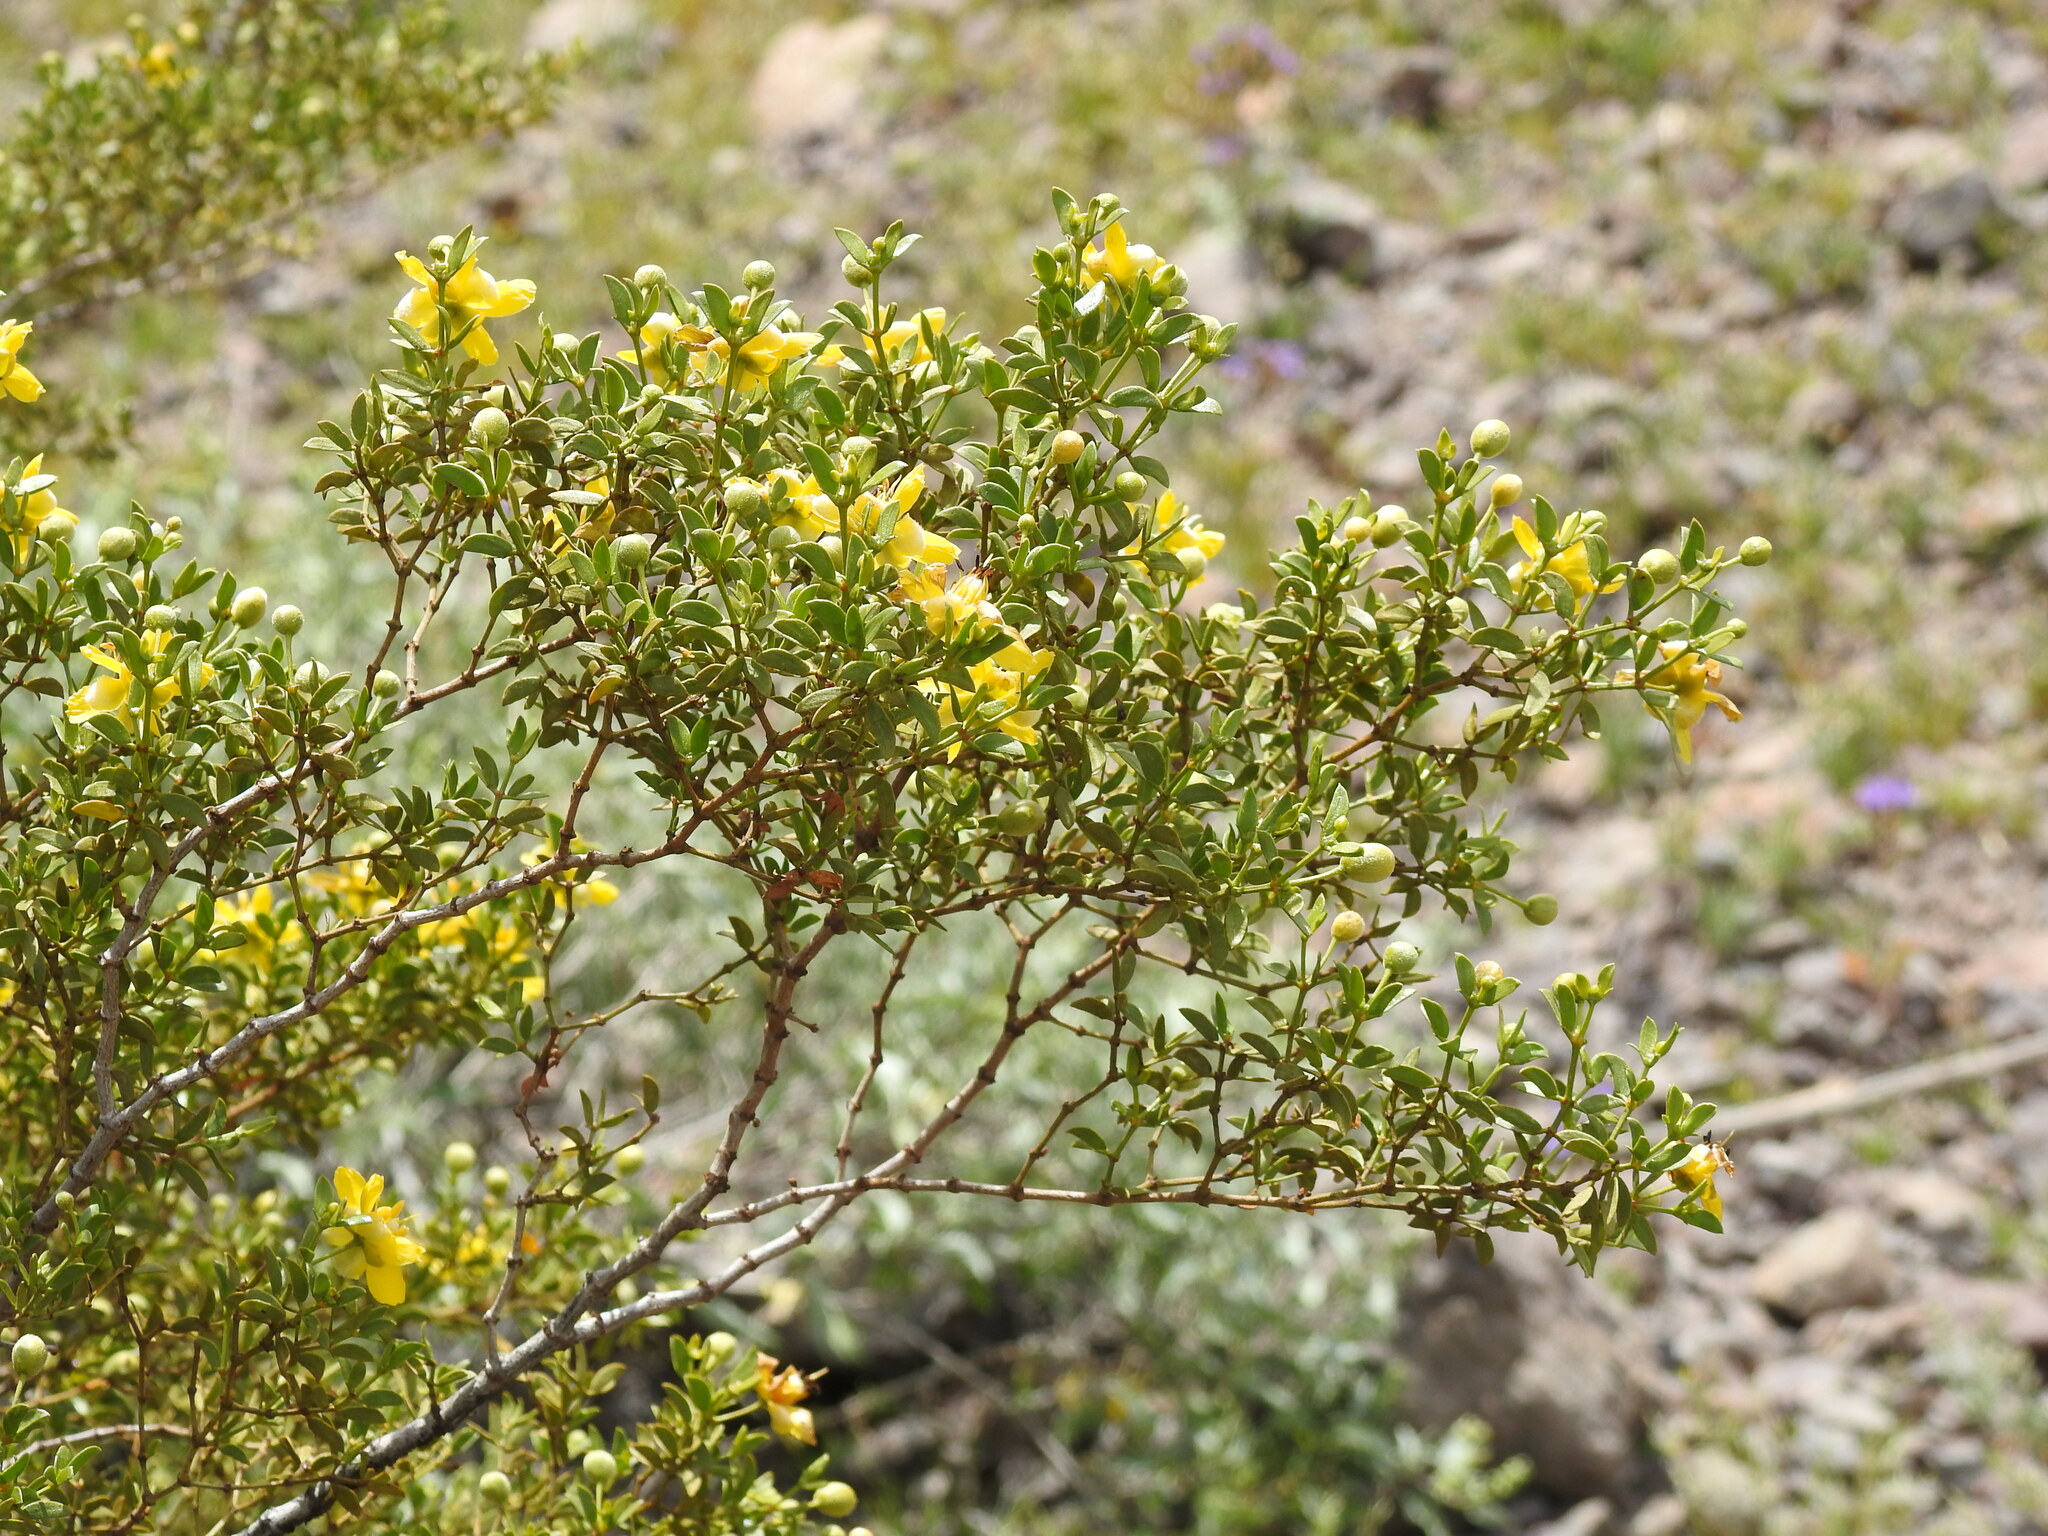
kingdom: Plantae
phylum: Tracheophyta
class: Magnoliopsida
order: Zygophyllales
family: Zygophyllaceae
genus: Larrea
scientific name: Larrea tridentata
